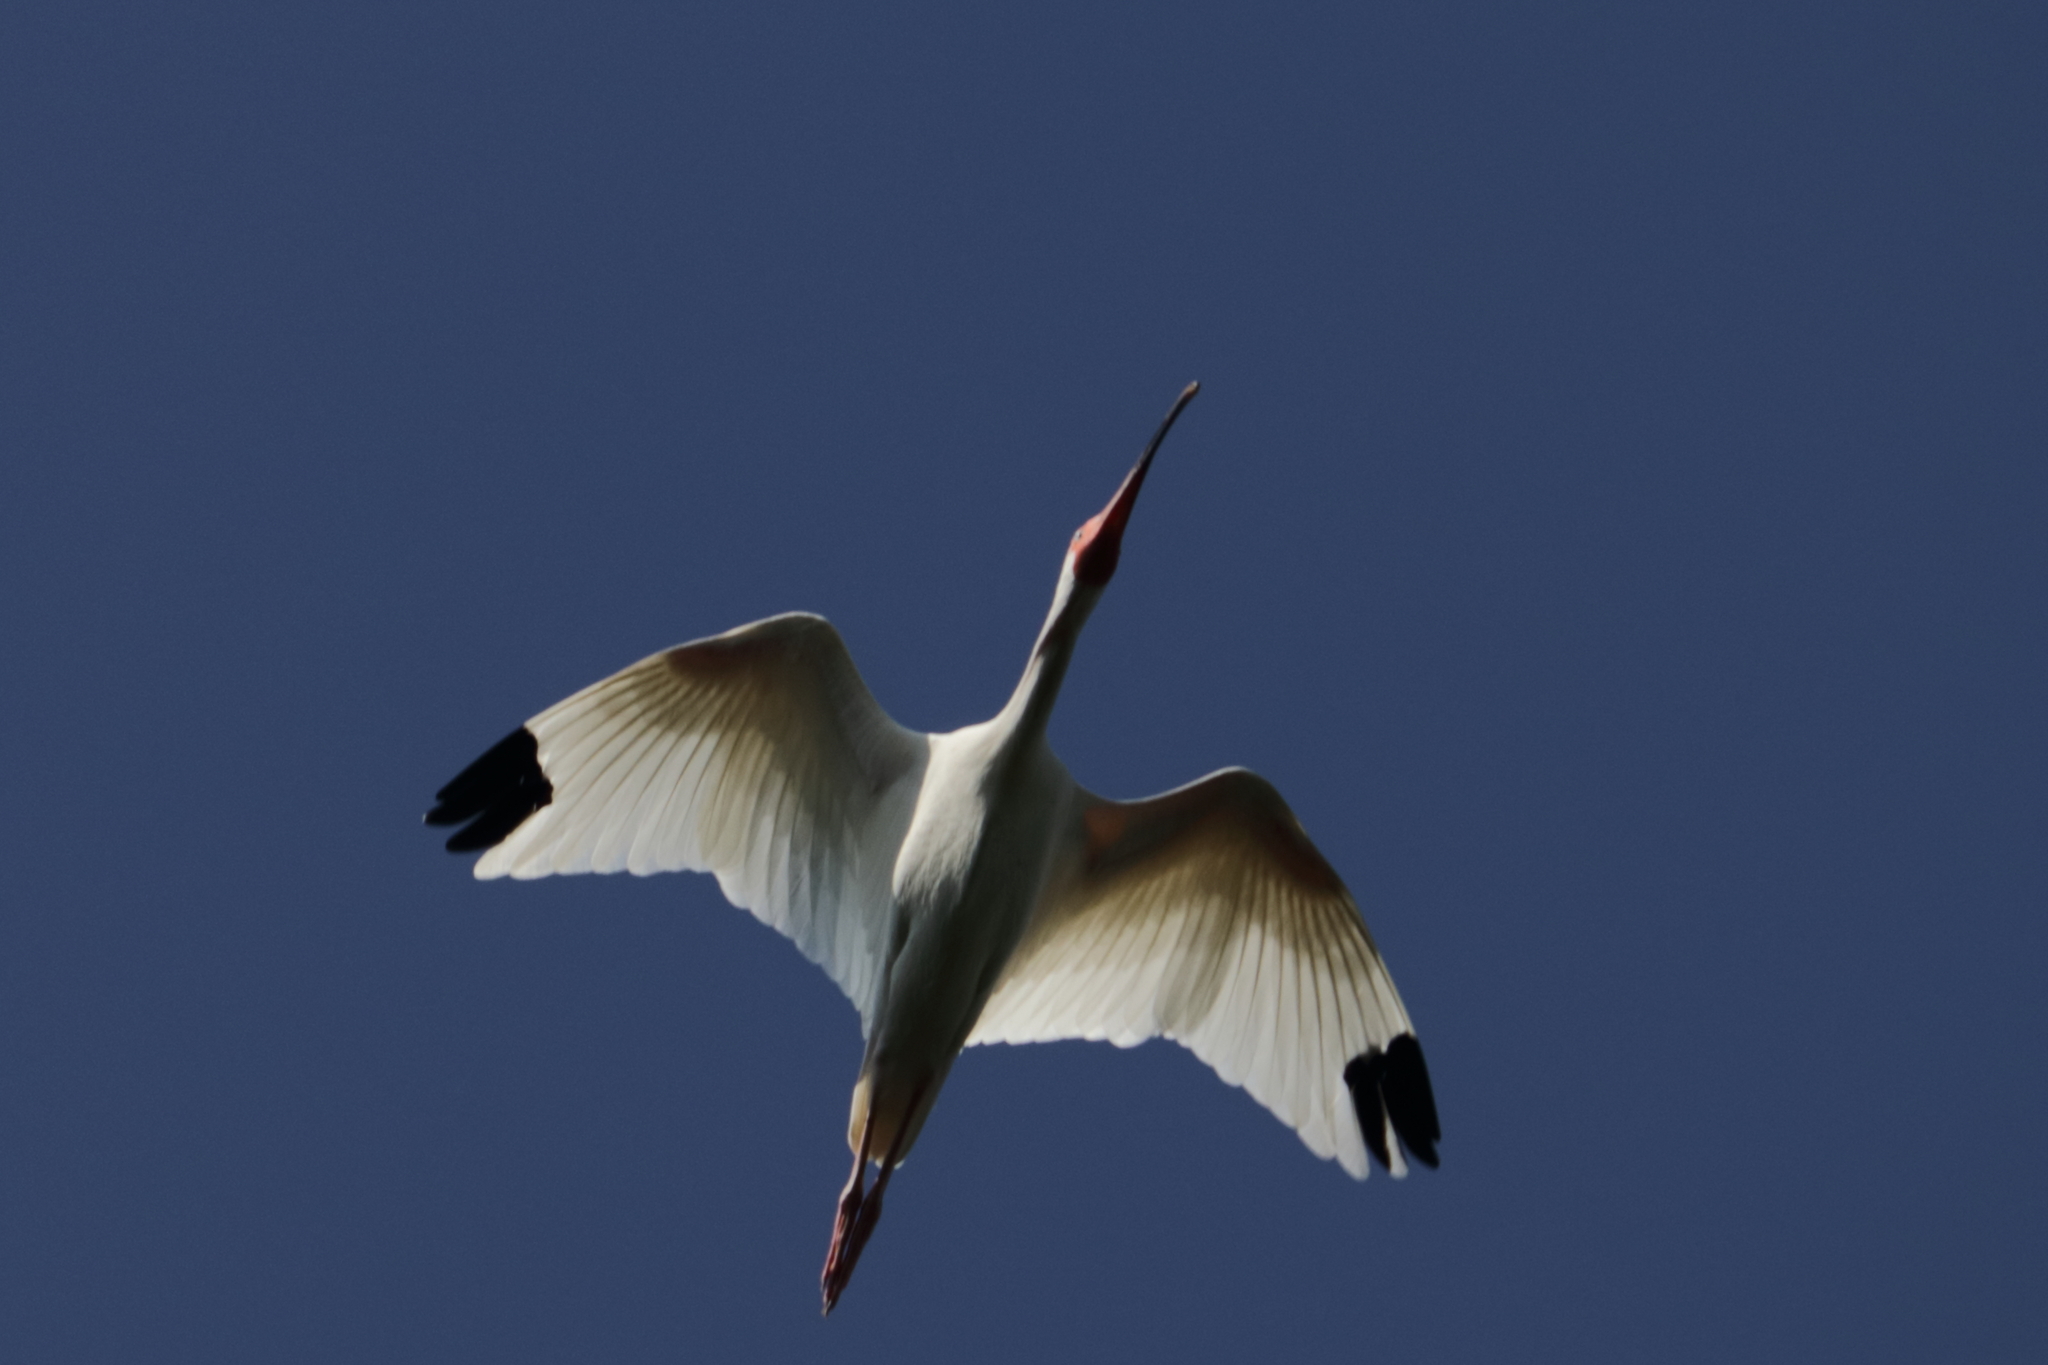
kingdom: Animalia
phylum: Chordata
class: Aves
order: Pelecaniformes
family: Threskiornithidae
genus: Eudocimus
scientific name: Eudocimus albus
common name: White ibis
